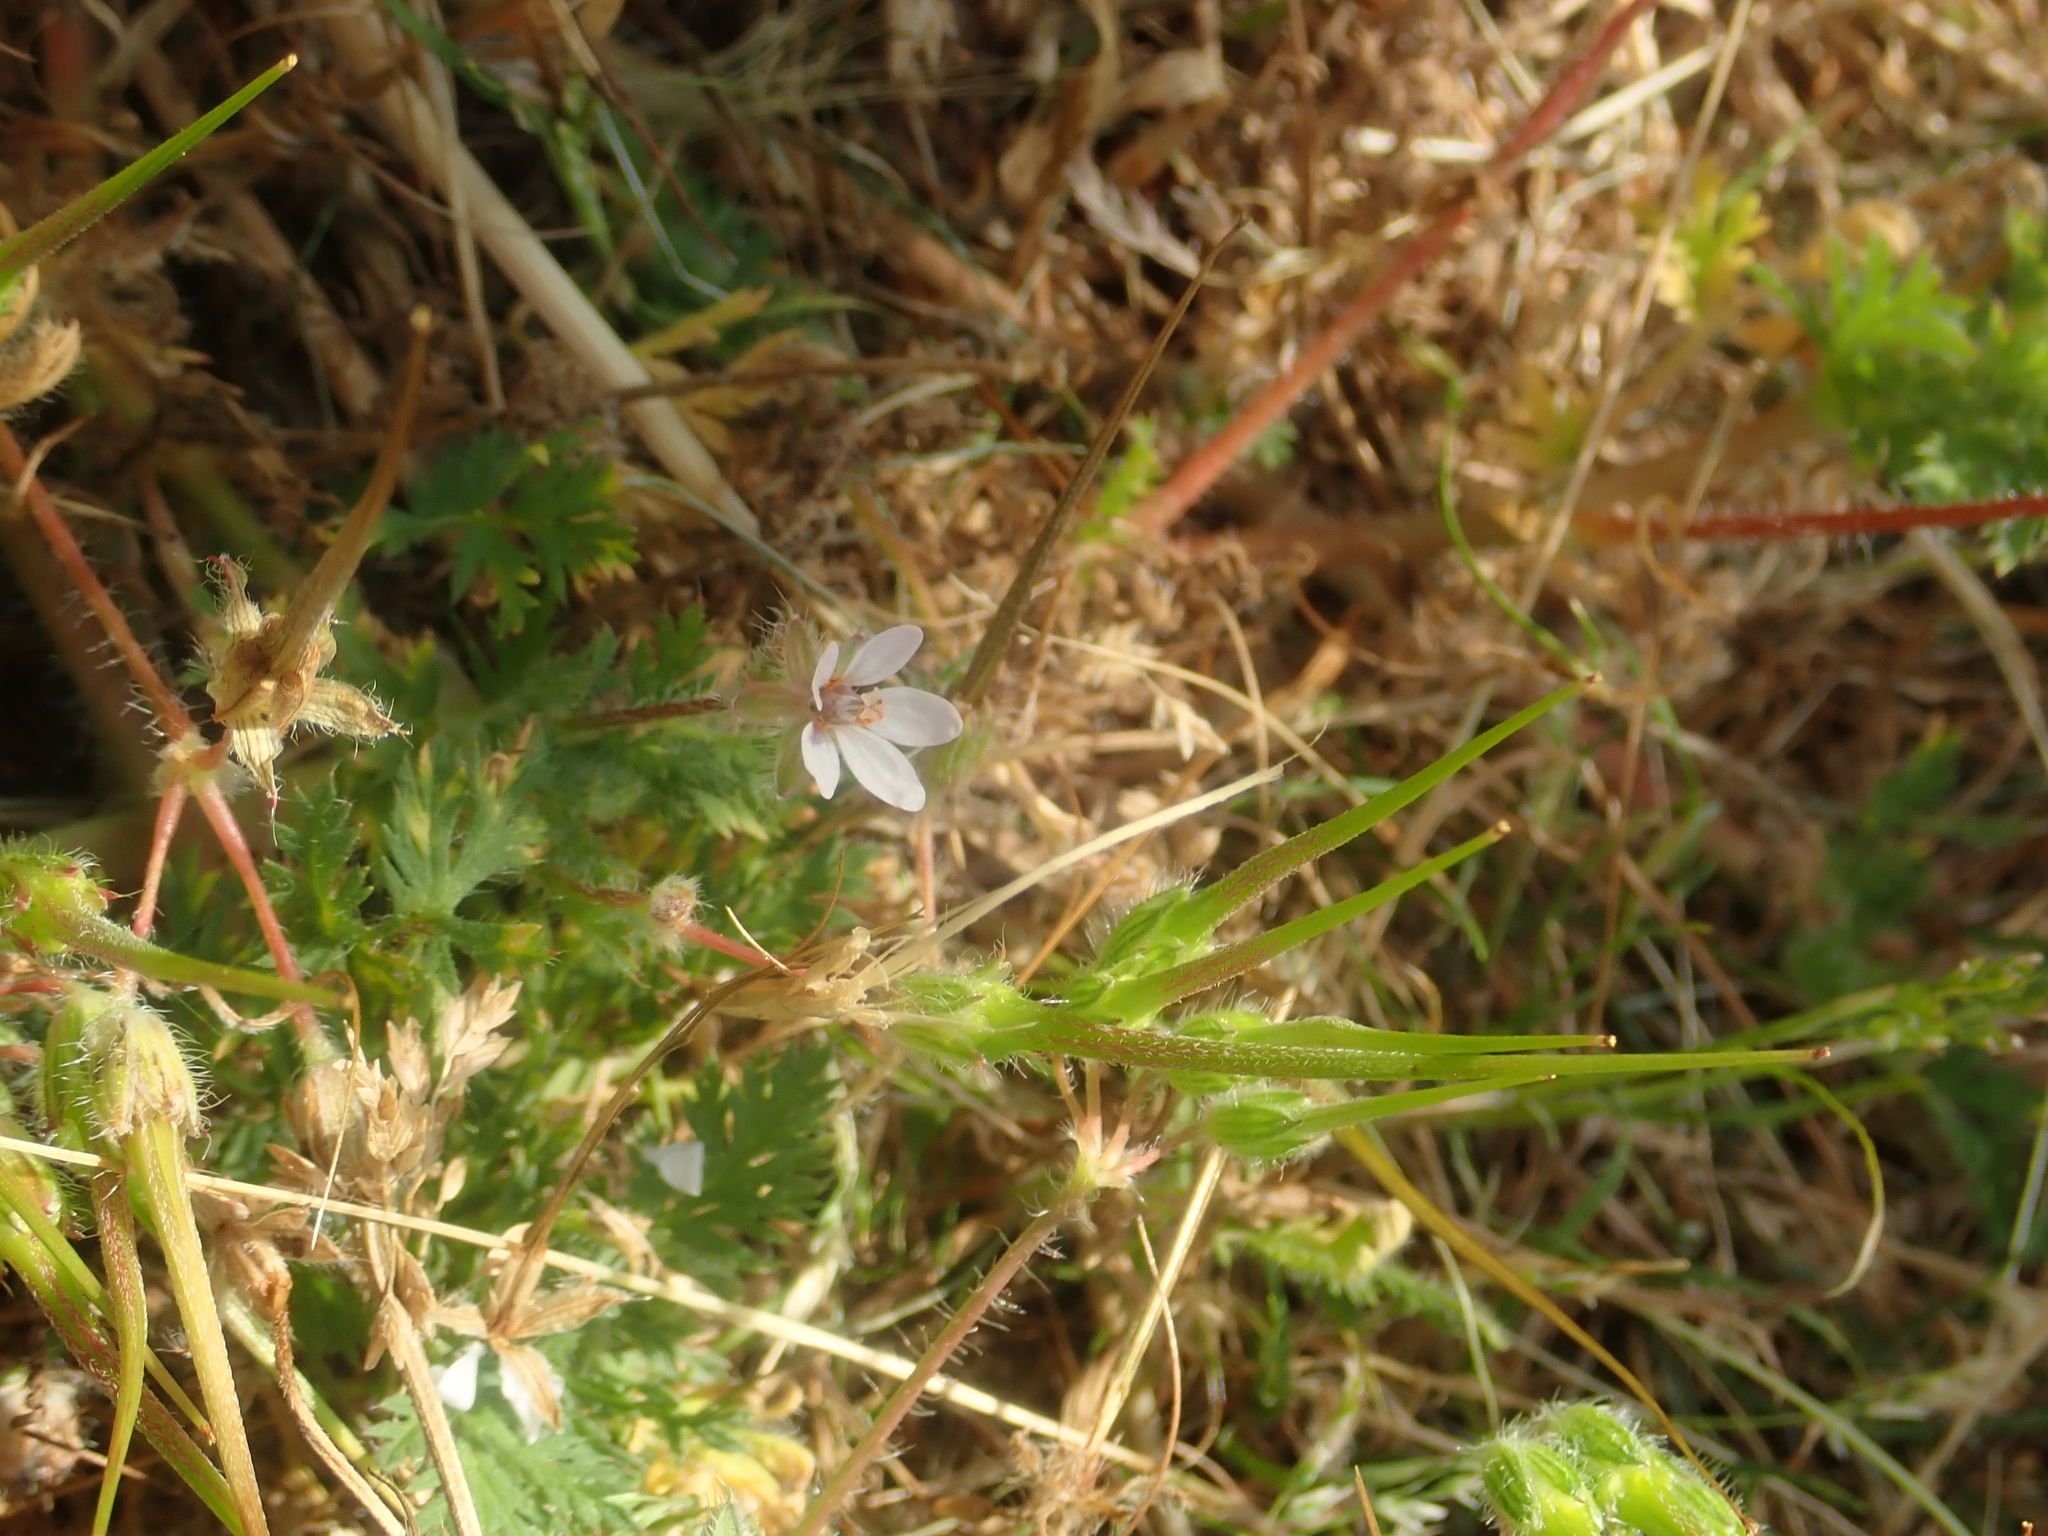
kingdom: Plantae
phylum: Tracheophyta
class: Magnoliopsida
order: Geraniales
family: Geraniaceae
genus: Erodium
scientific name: Erodium cicutarium
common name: Common stork's-bill
